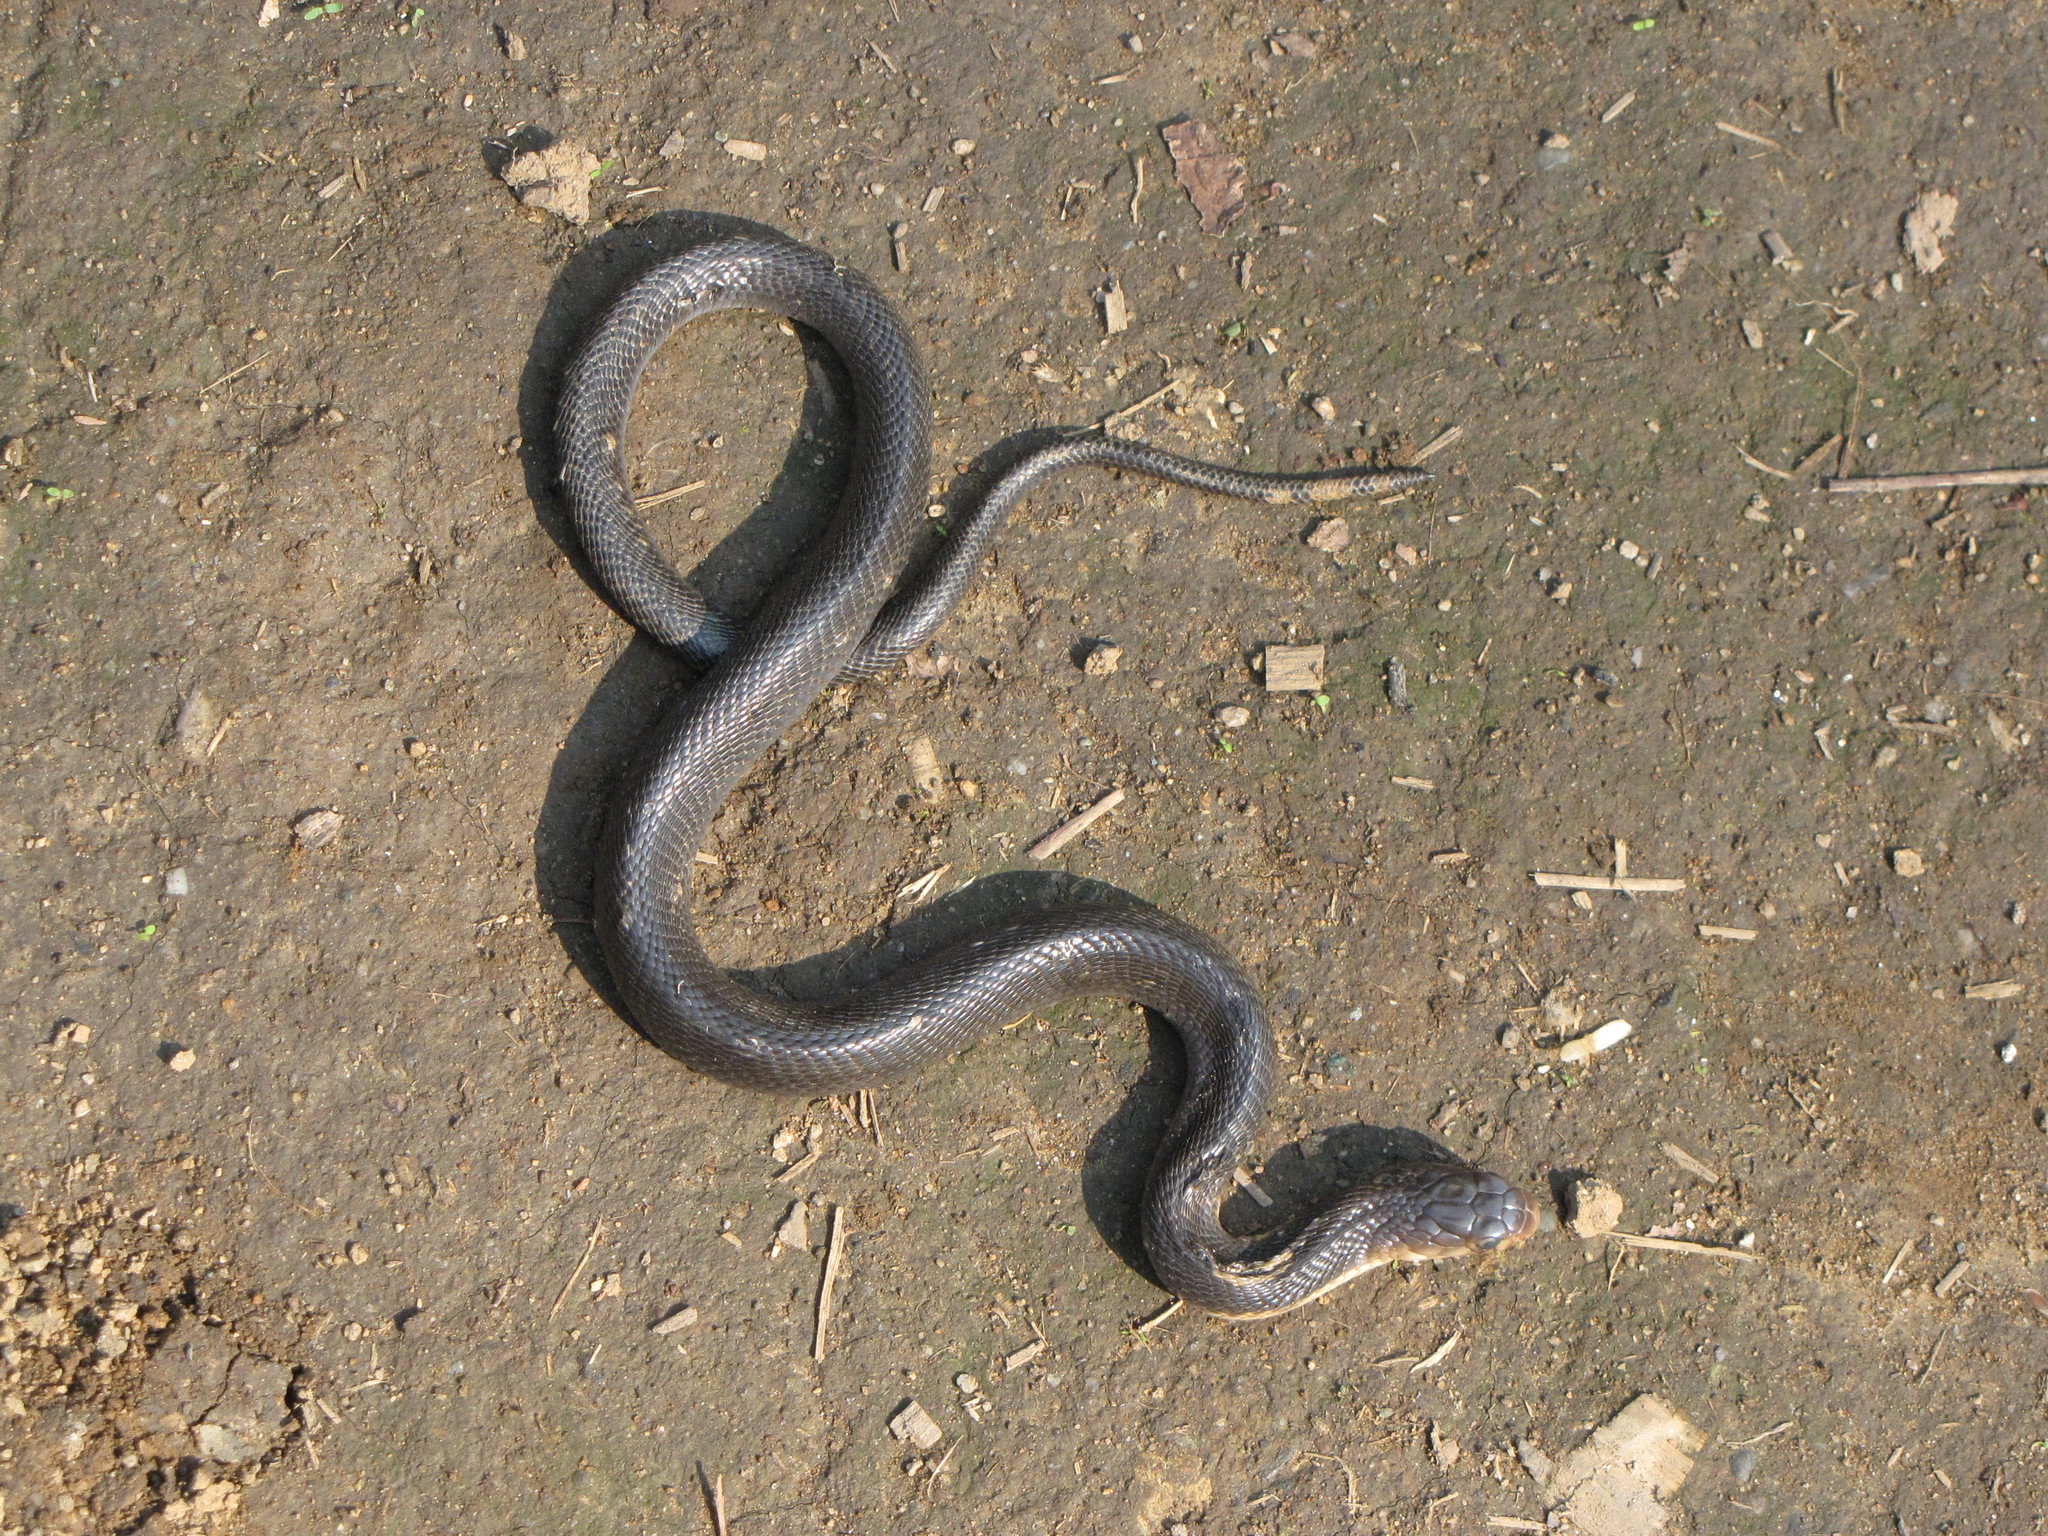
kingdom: Animalia
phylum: Chordata
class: Squamata
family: Elapidae
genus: Naja
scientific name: Naja kaouthia
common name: Monocled cobra
